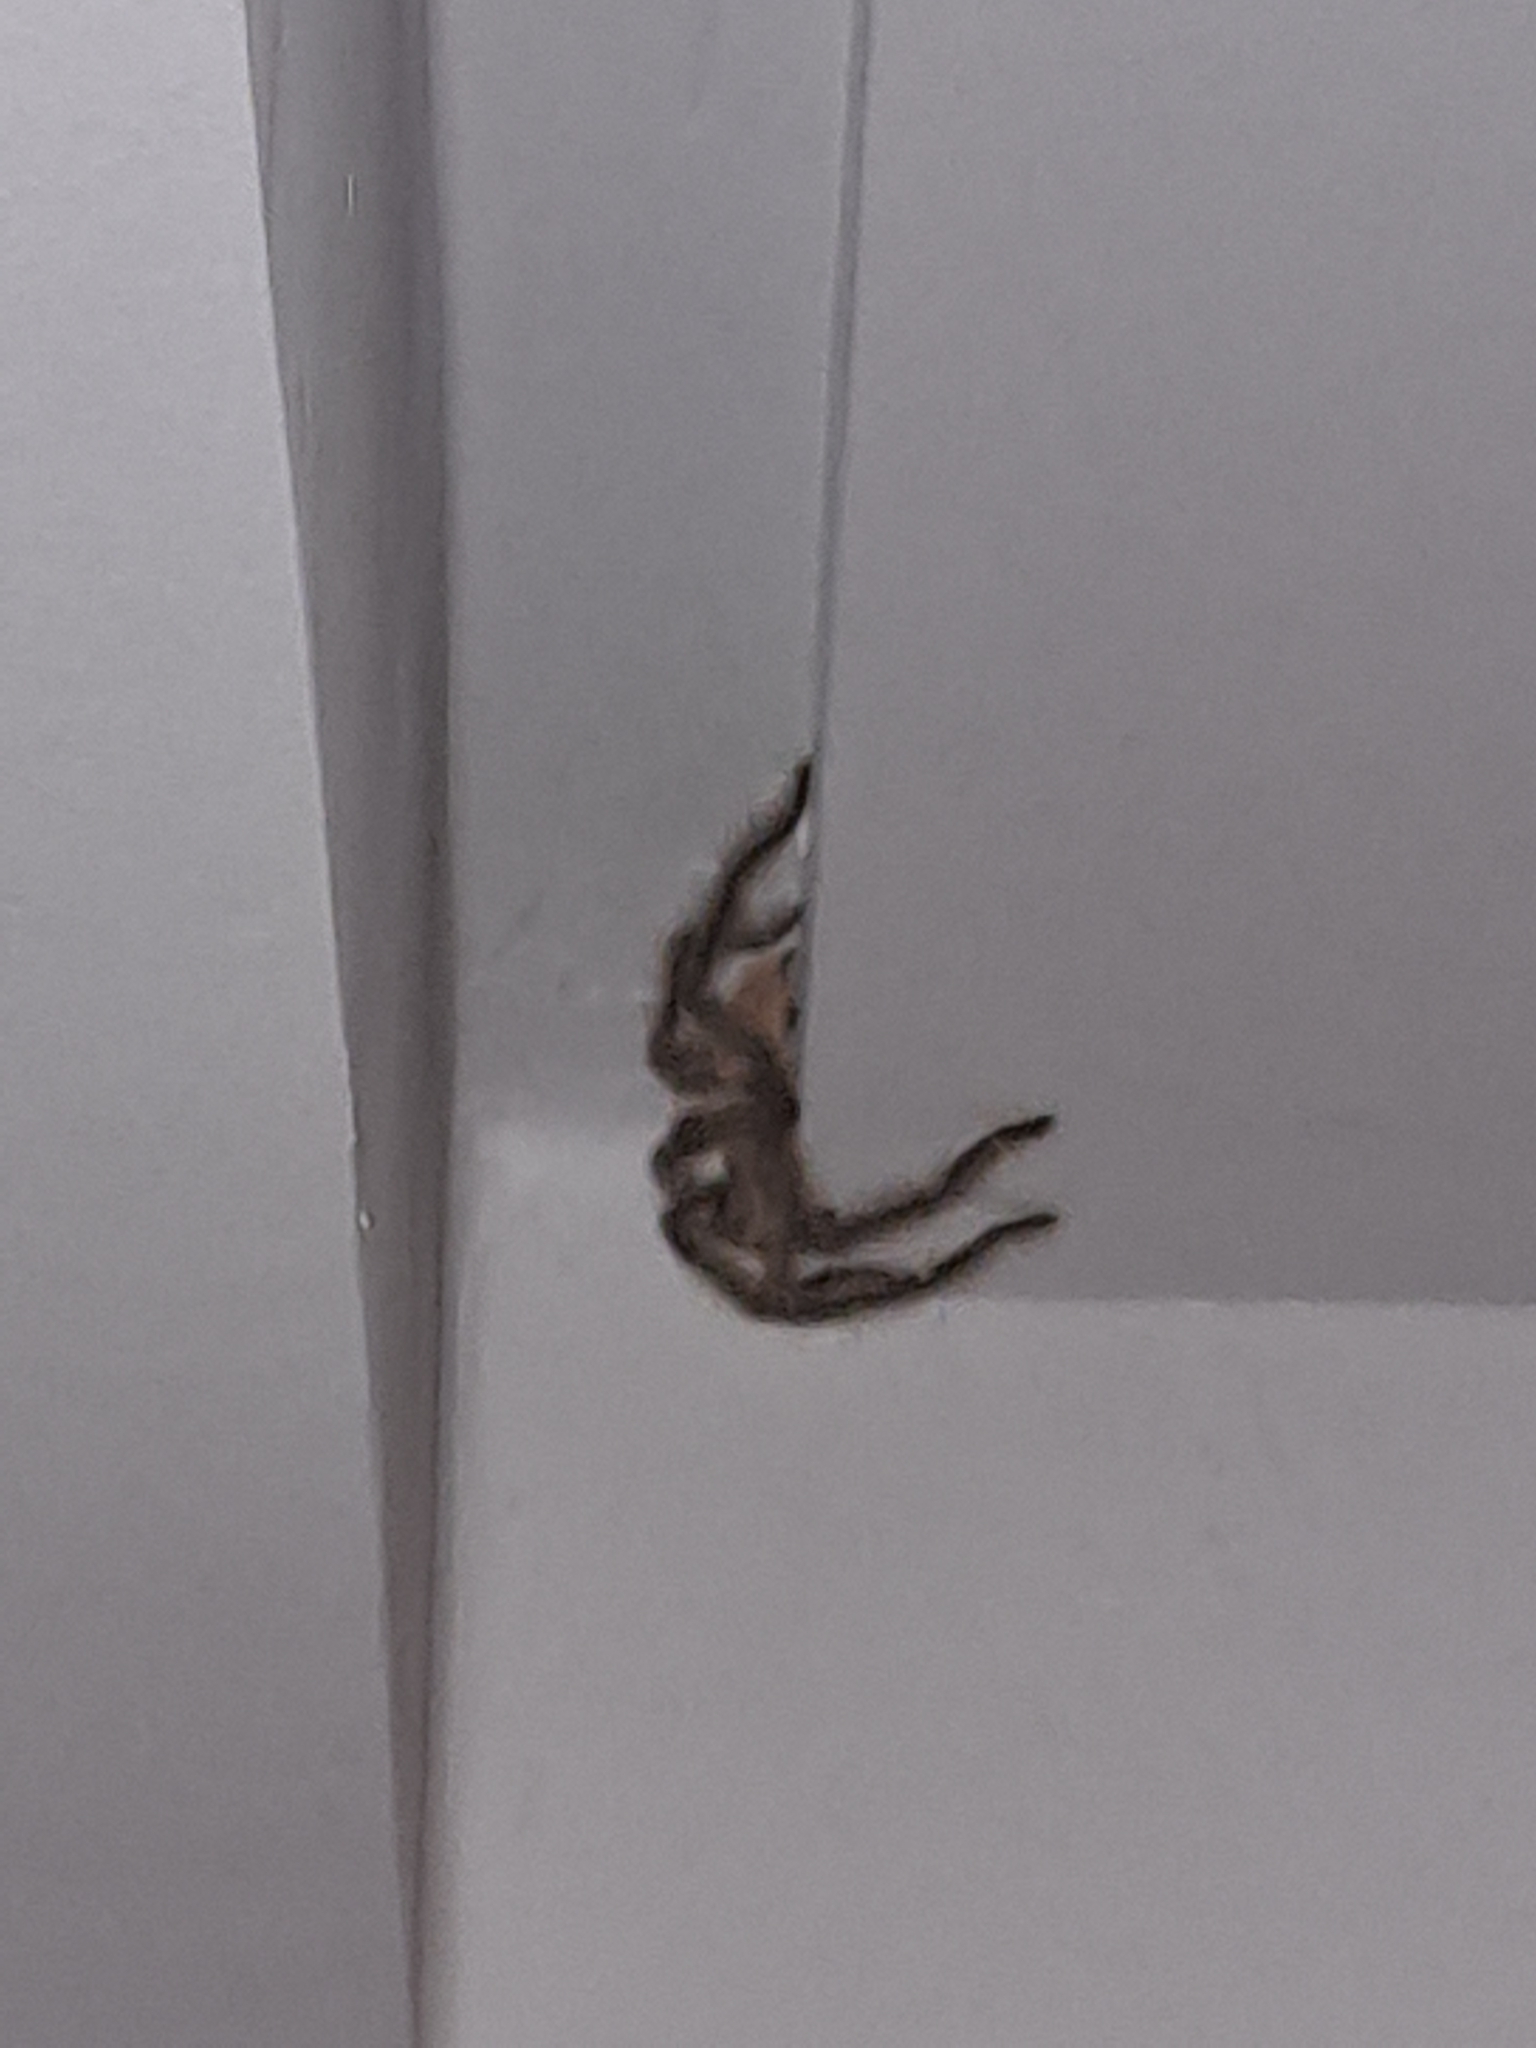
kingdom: Animalia
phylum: Arthropoda
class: Arachnida
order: Araneae
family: Theraphosidae
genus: Iridopelma
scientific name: Iridopelma hirsutum
